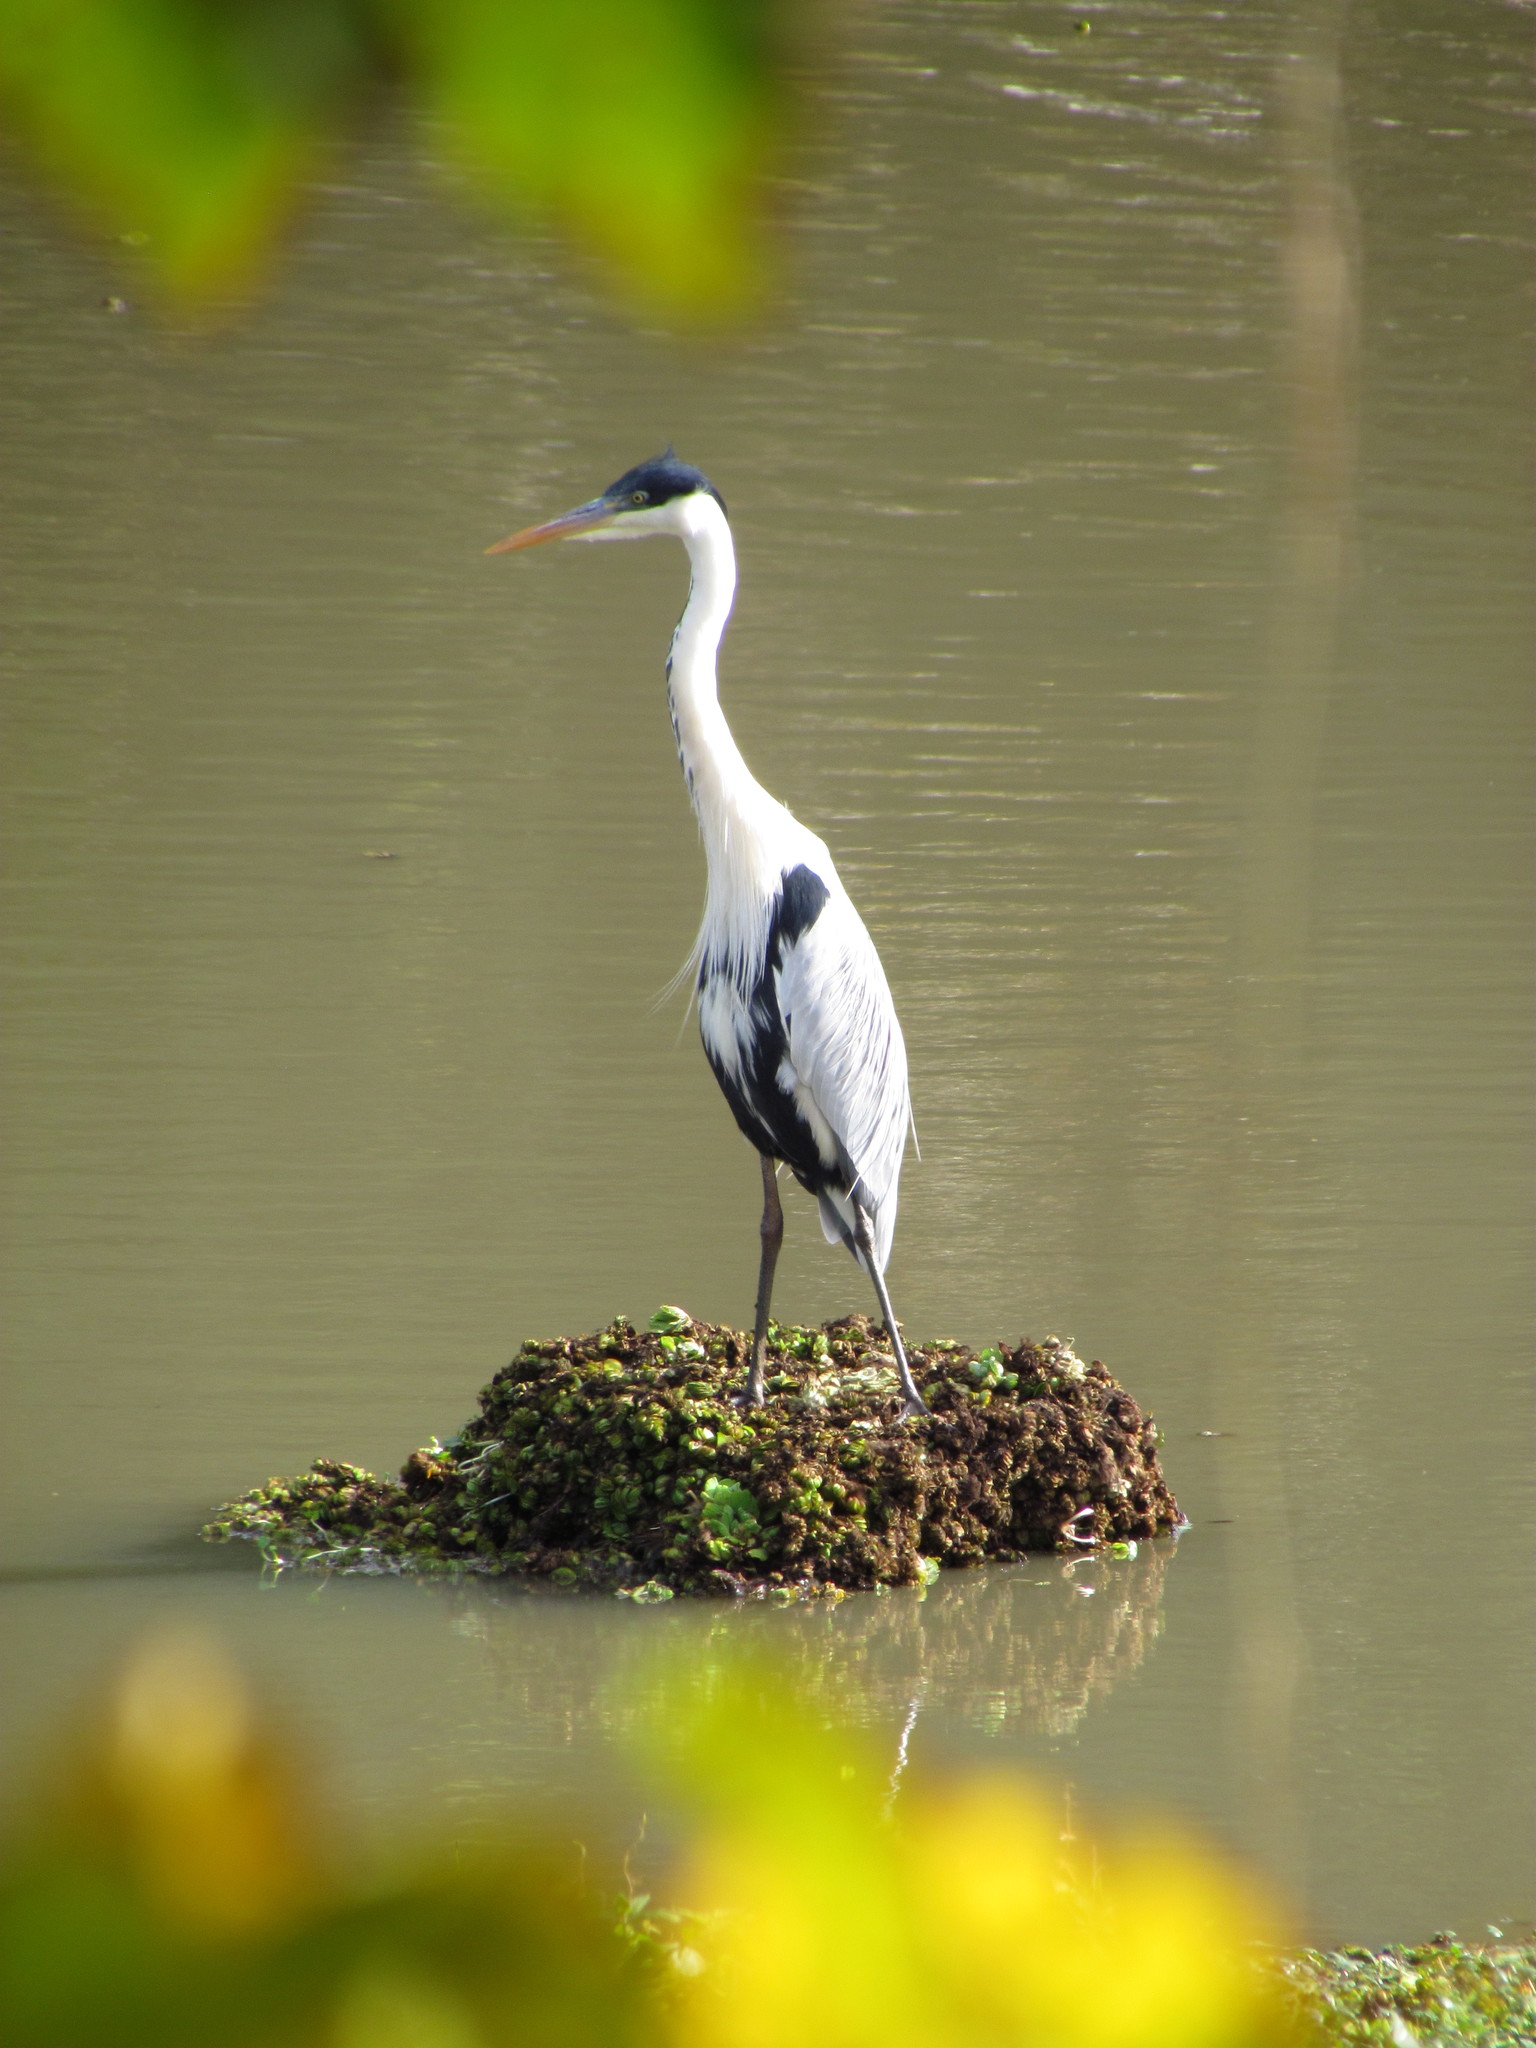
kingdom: Animalia
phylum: Chordata
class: Aves
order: Pelecaniformes
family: Ardeidae
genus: Ardea
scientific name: Ardea cocoi
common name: Cocoi heron
